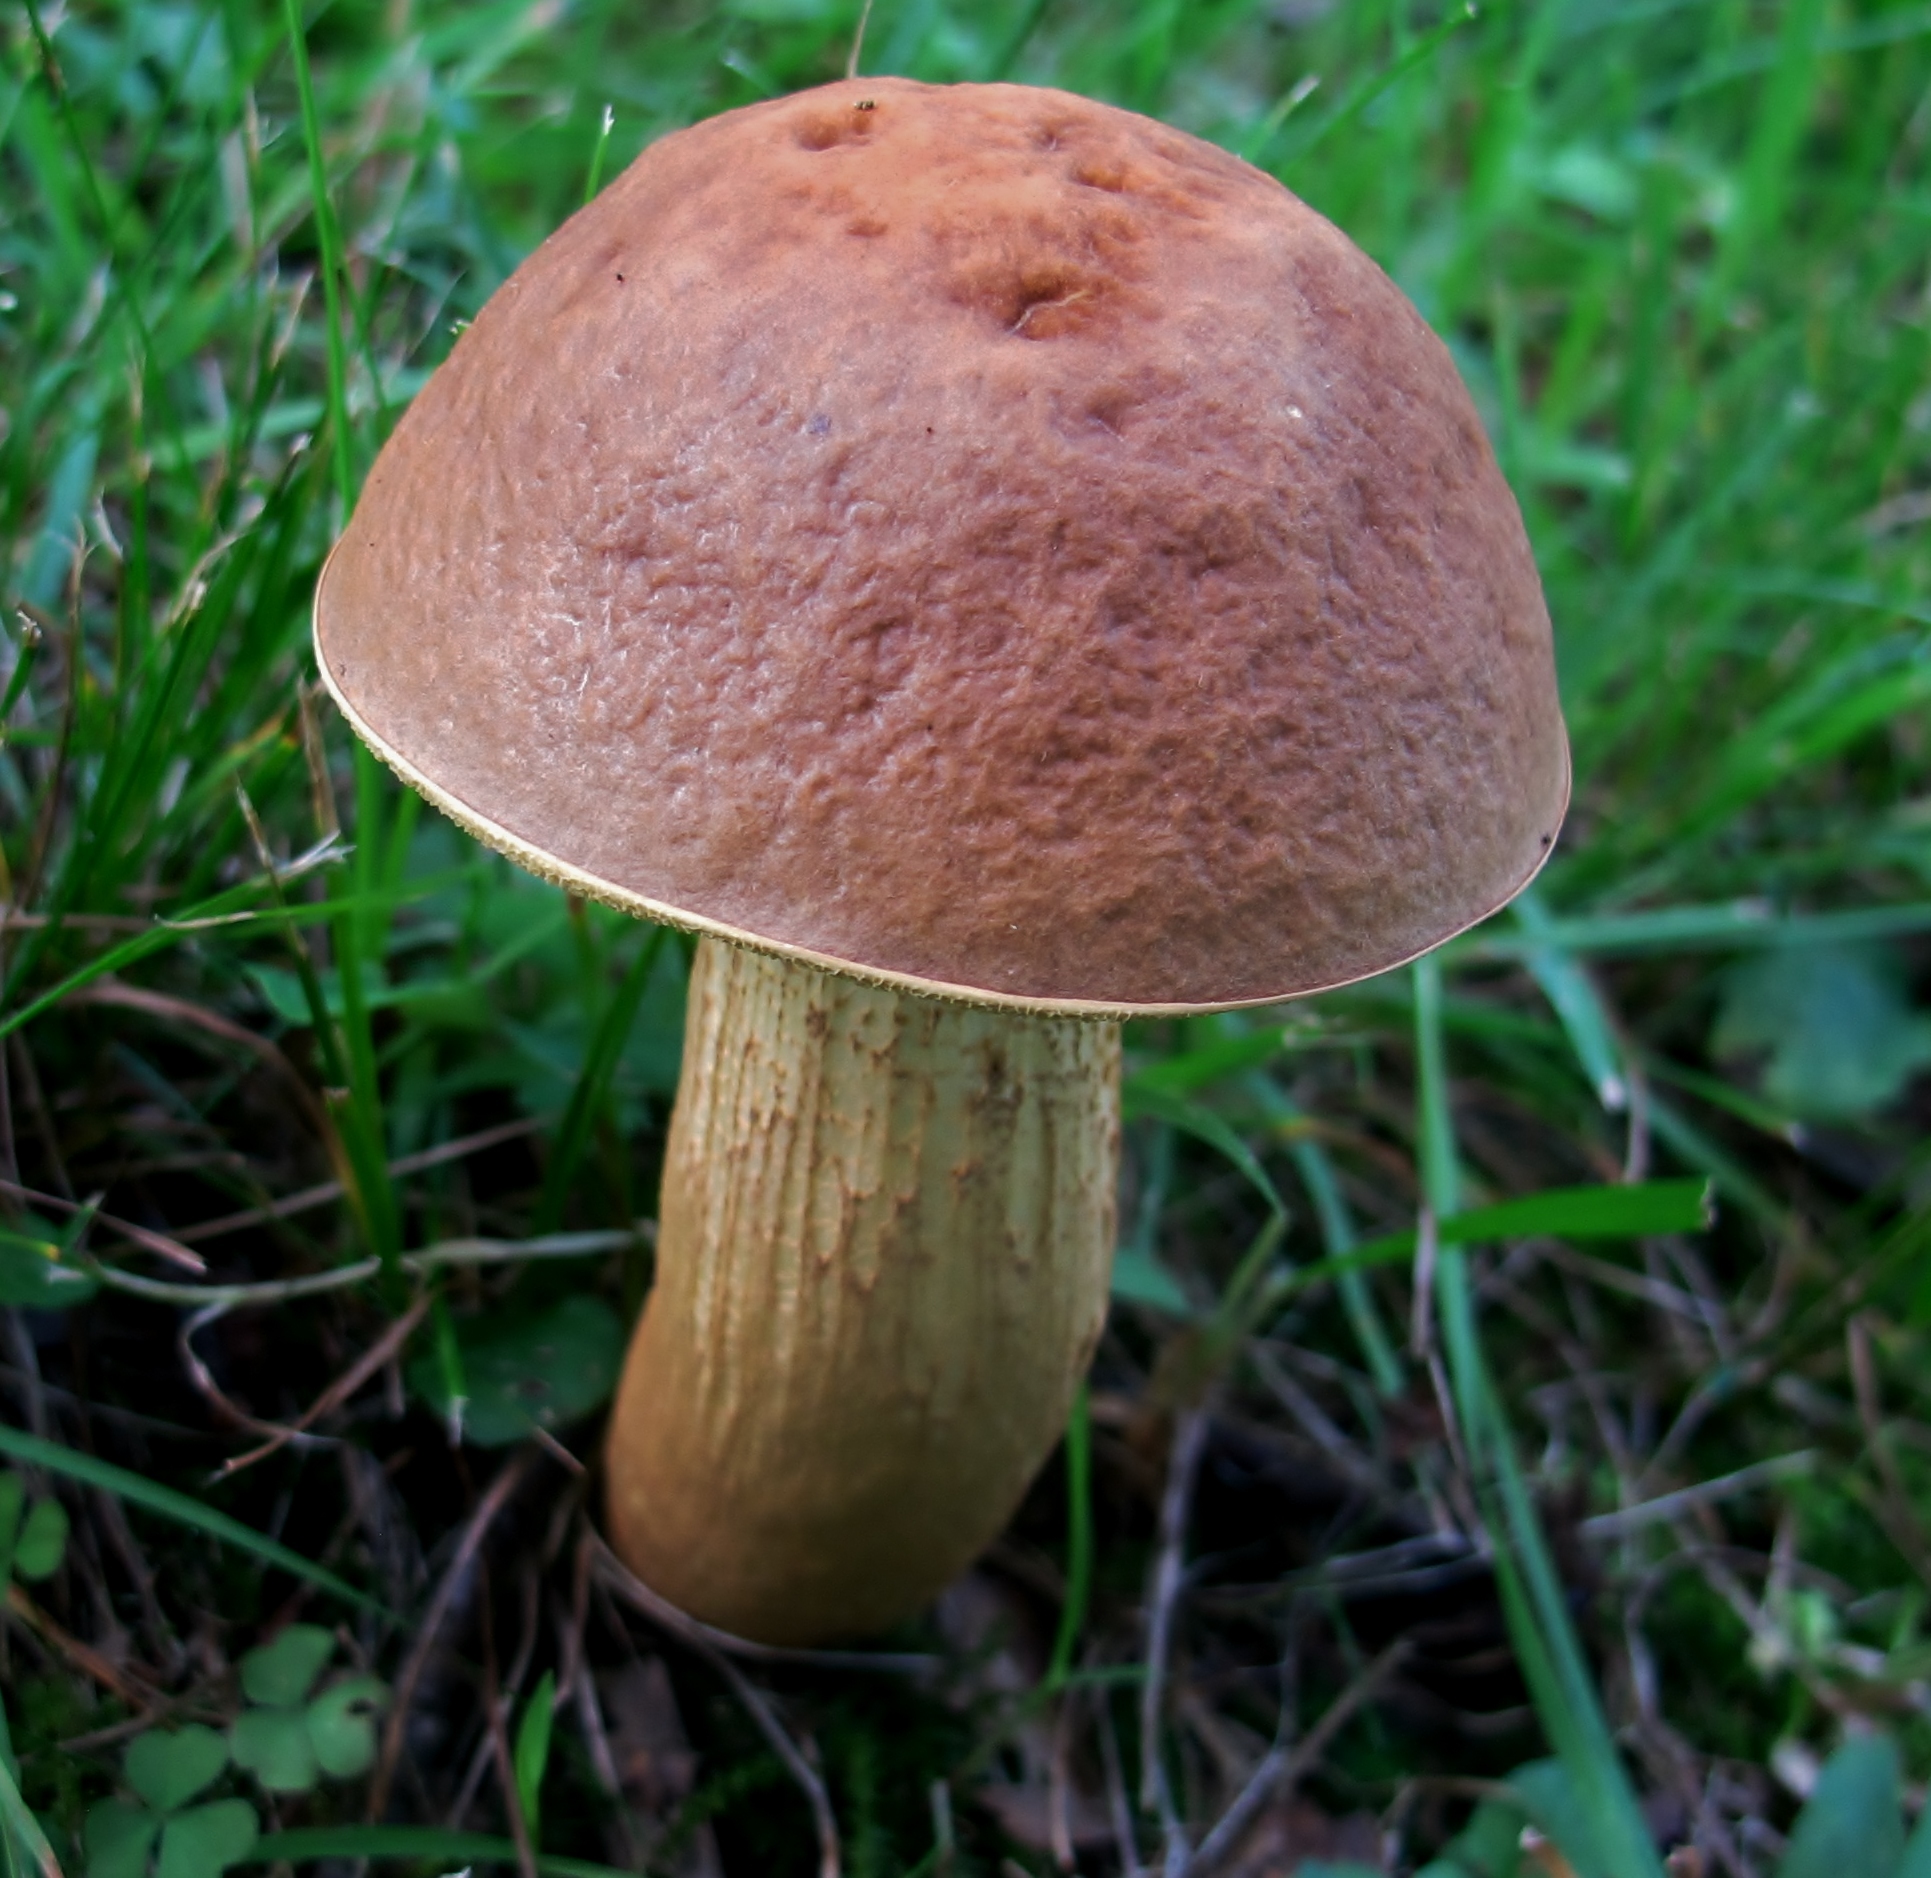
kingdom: Fungi
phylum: Basidiomycota
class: Agaricomycetes
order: Boletales
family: Boletaceae
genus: Leccinellum
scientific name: Leccinellum rugosiceps
